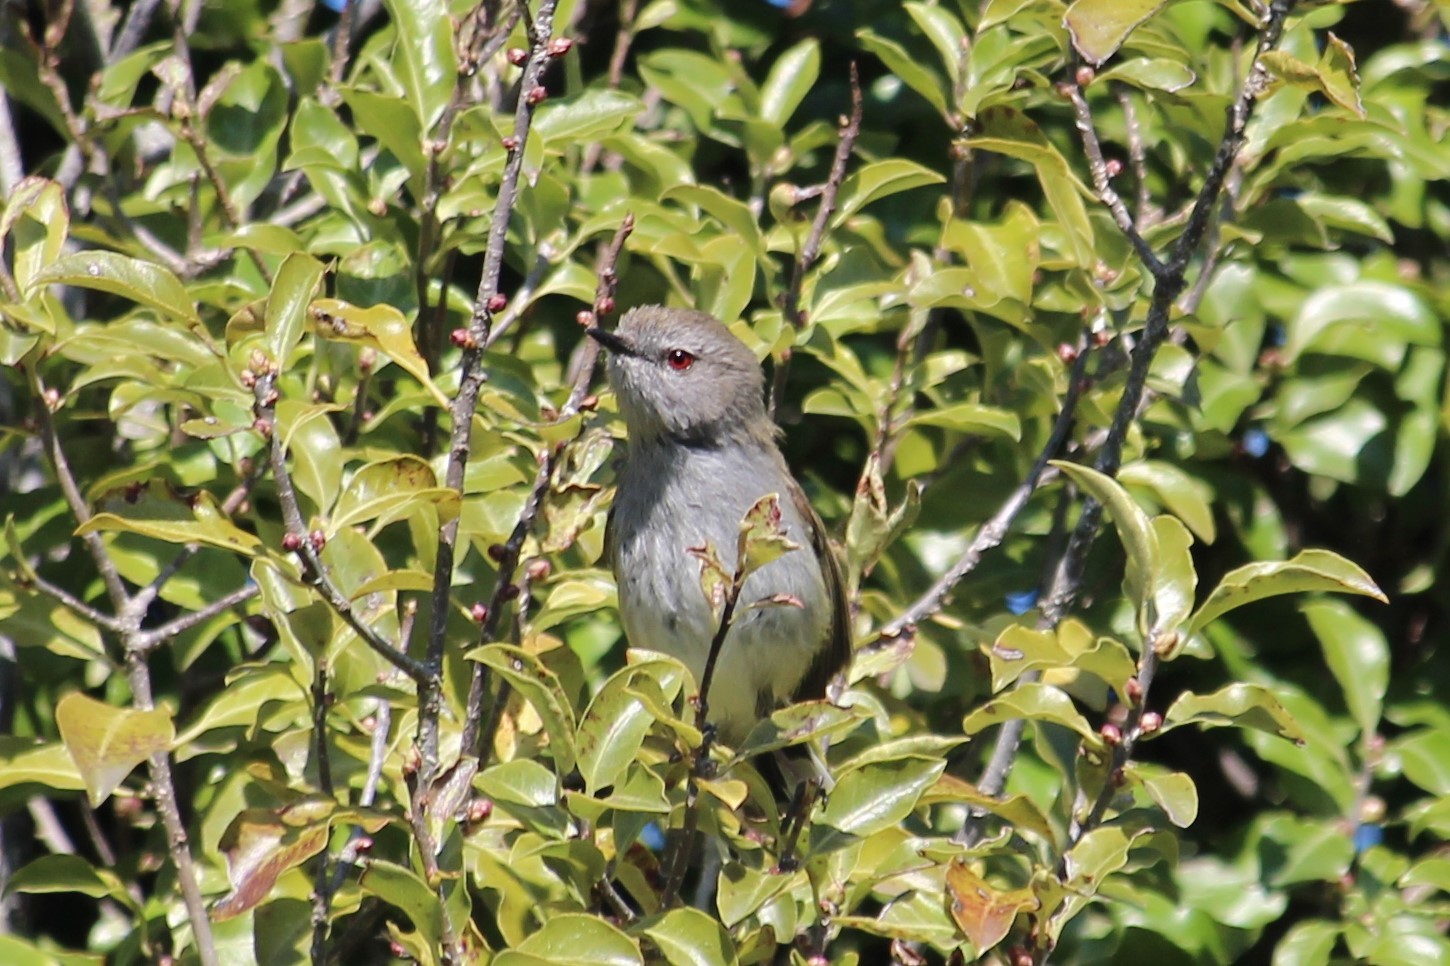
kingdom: Animalia
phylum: Chordata
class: Aves
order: Passeriformes
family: Acanthizidae
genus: Gerygone
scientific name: Gerygone igata
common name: Grey gerygone
